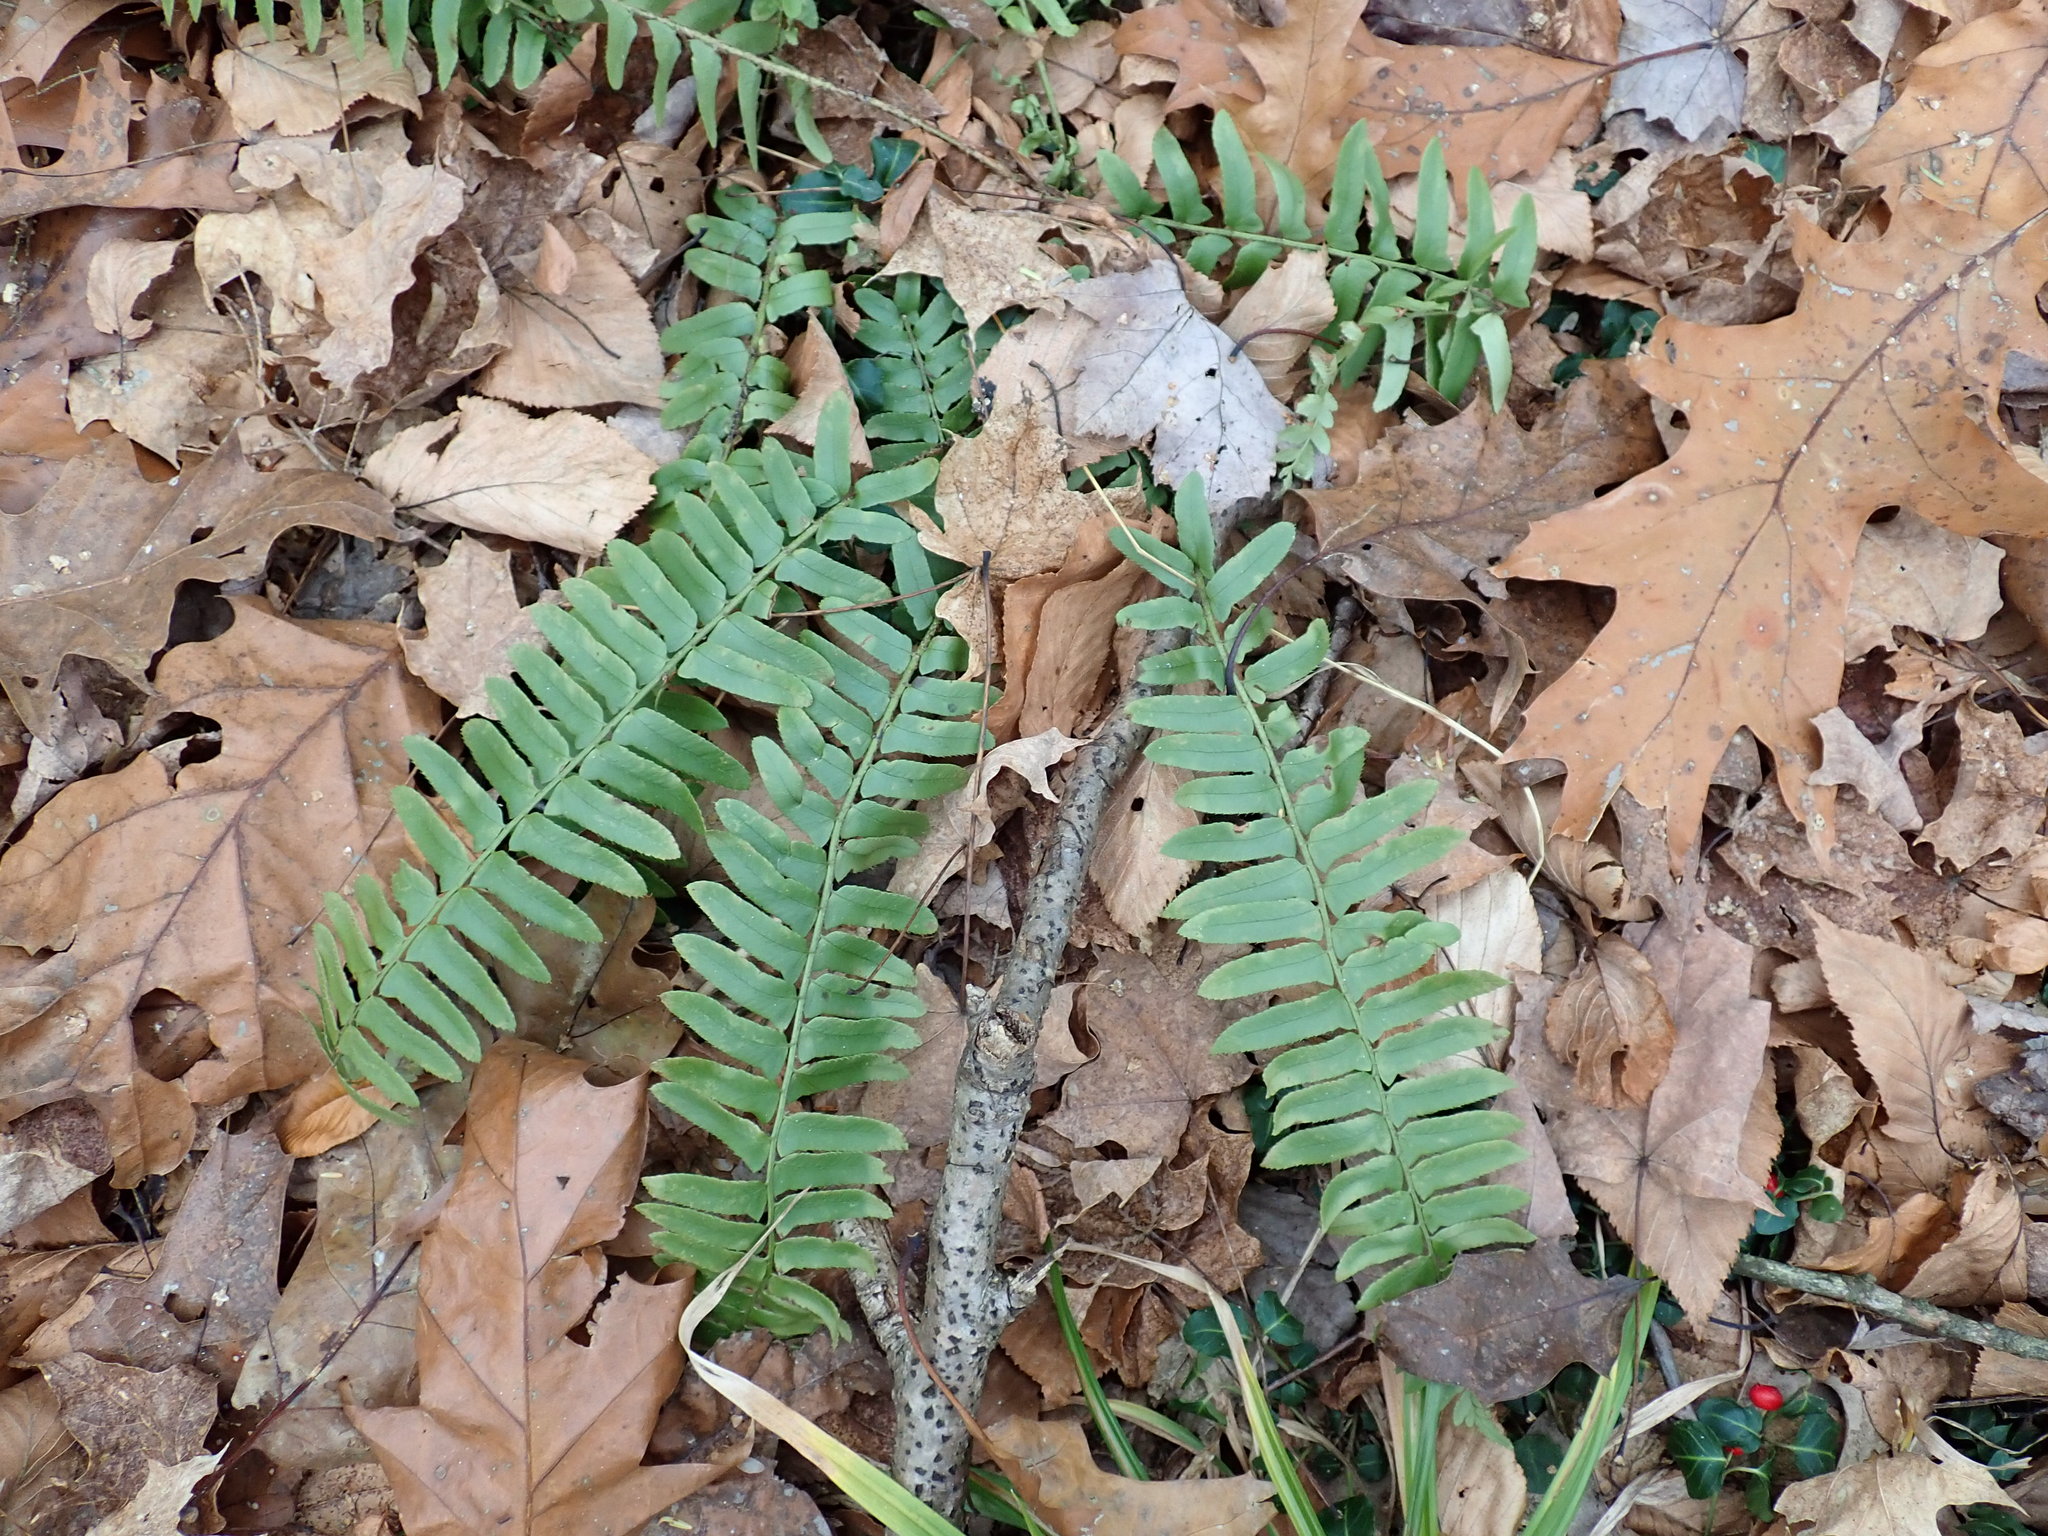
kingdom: Plantae
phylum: Tracheophyta
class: Polypodiopsida
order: Polypodiales
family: Dryopteridaceae
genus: Polystichum
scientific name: Polystichum acrostichoides
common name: Christmas fern
